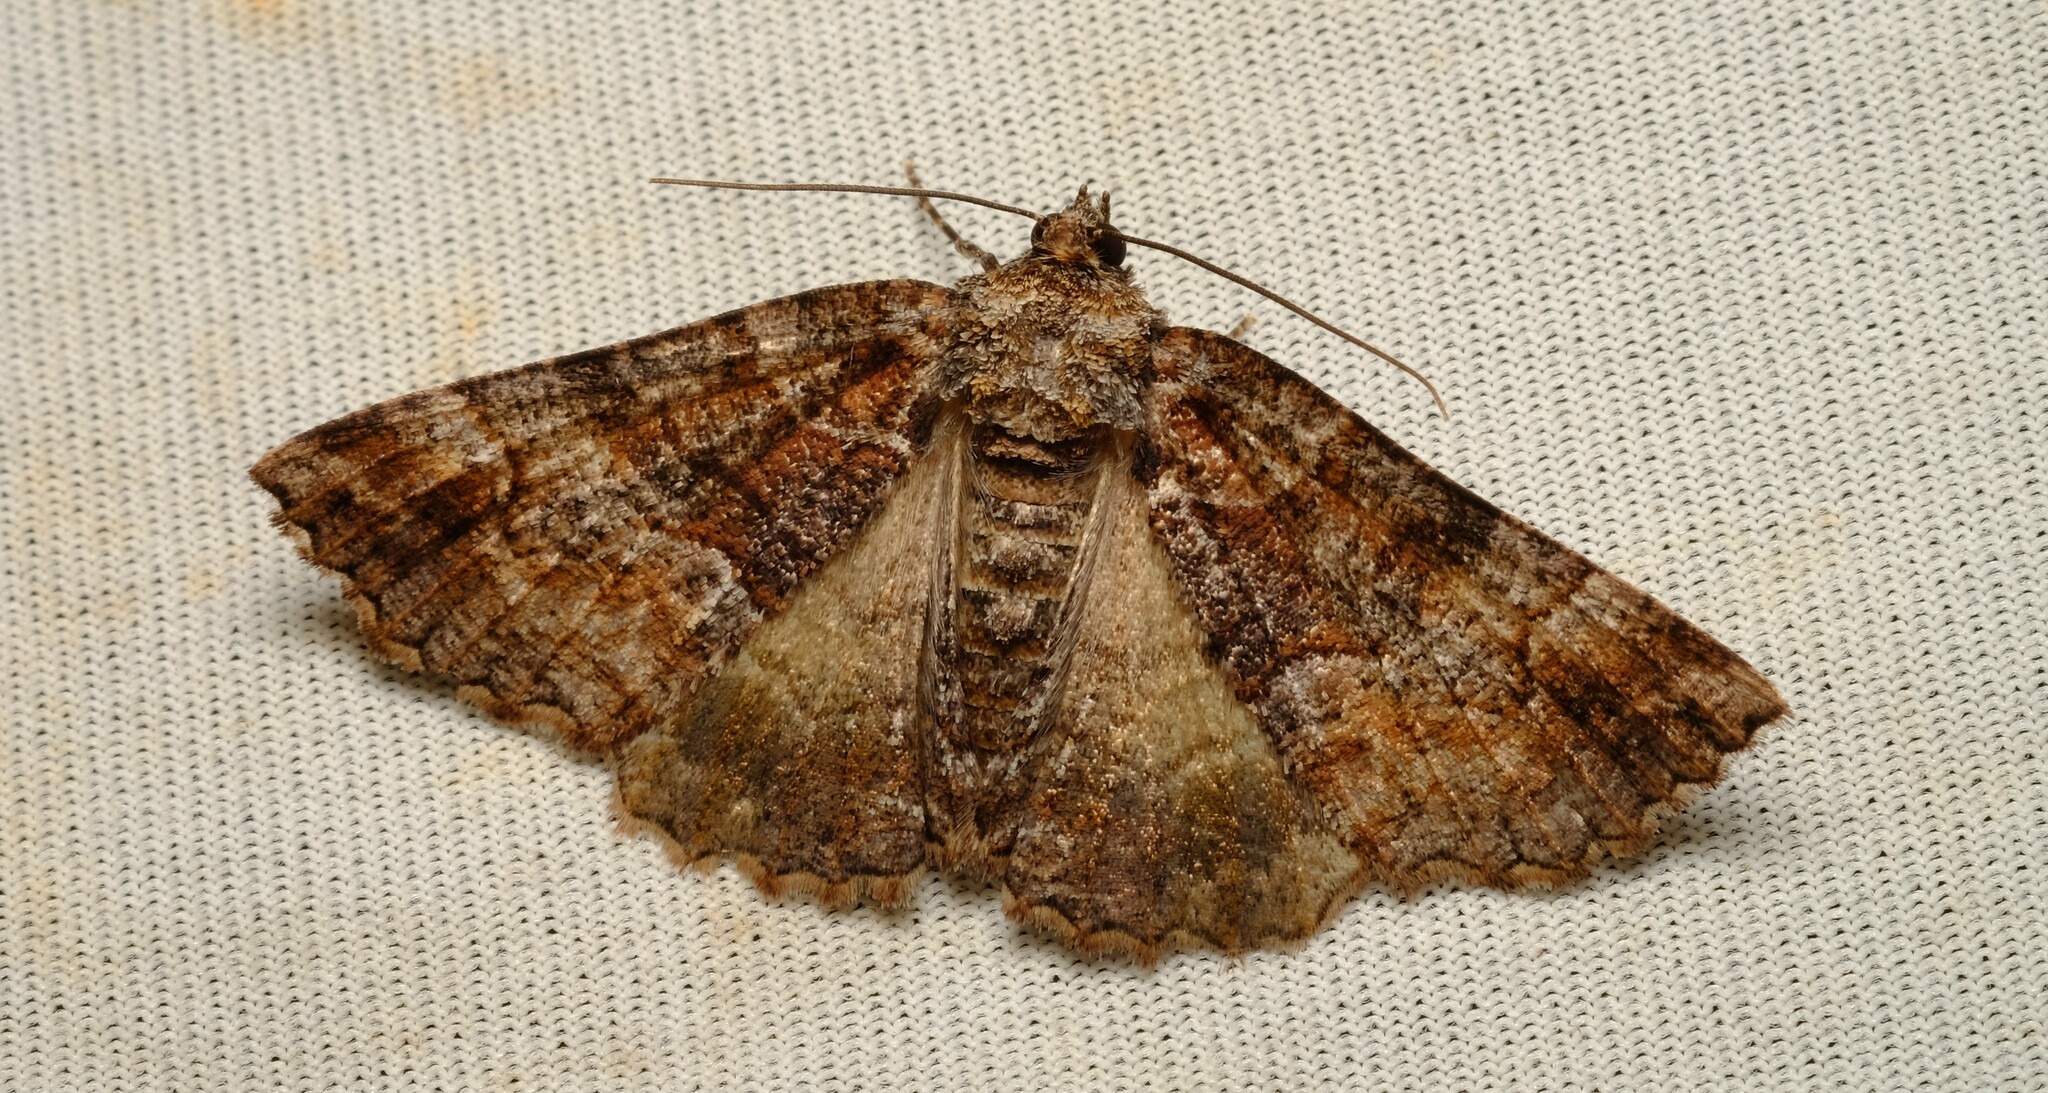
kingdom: Animalia
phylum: Arthropoda
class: Insecta
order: Lepidoptera
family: Geometridae
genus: Gastrina
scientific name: Gastrina cristaria
